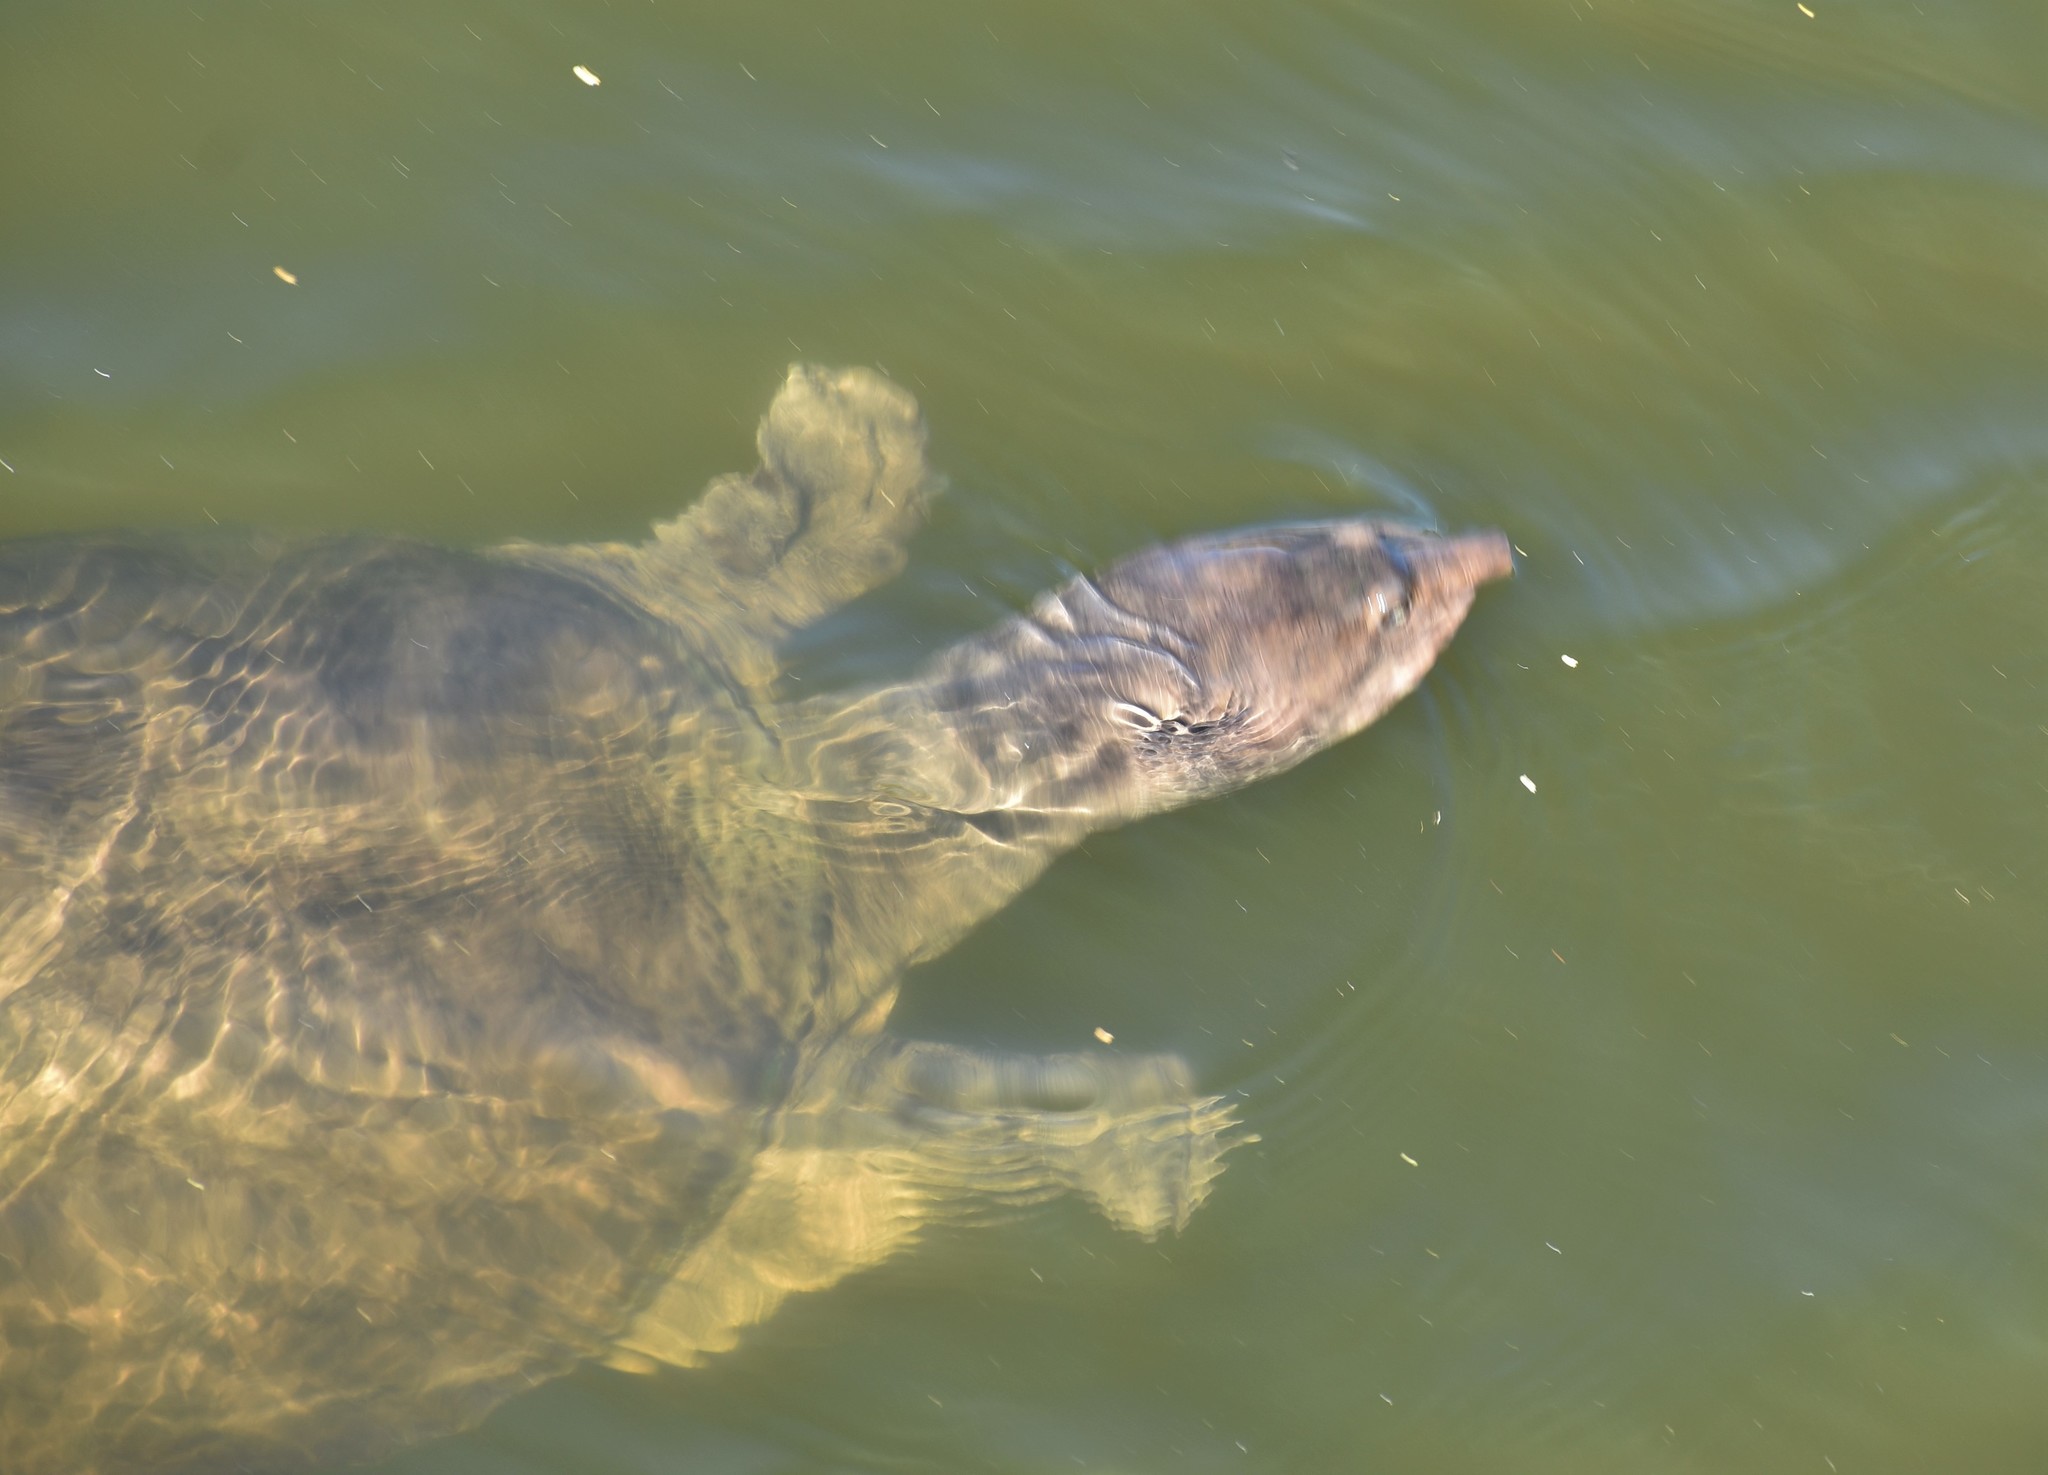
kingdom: Animalia
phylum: Chordata
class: Testudines
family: Trionychidae
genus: Apalone
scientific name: Apalone ferox
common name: Florida softshell turtle
